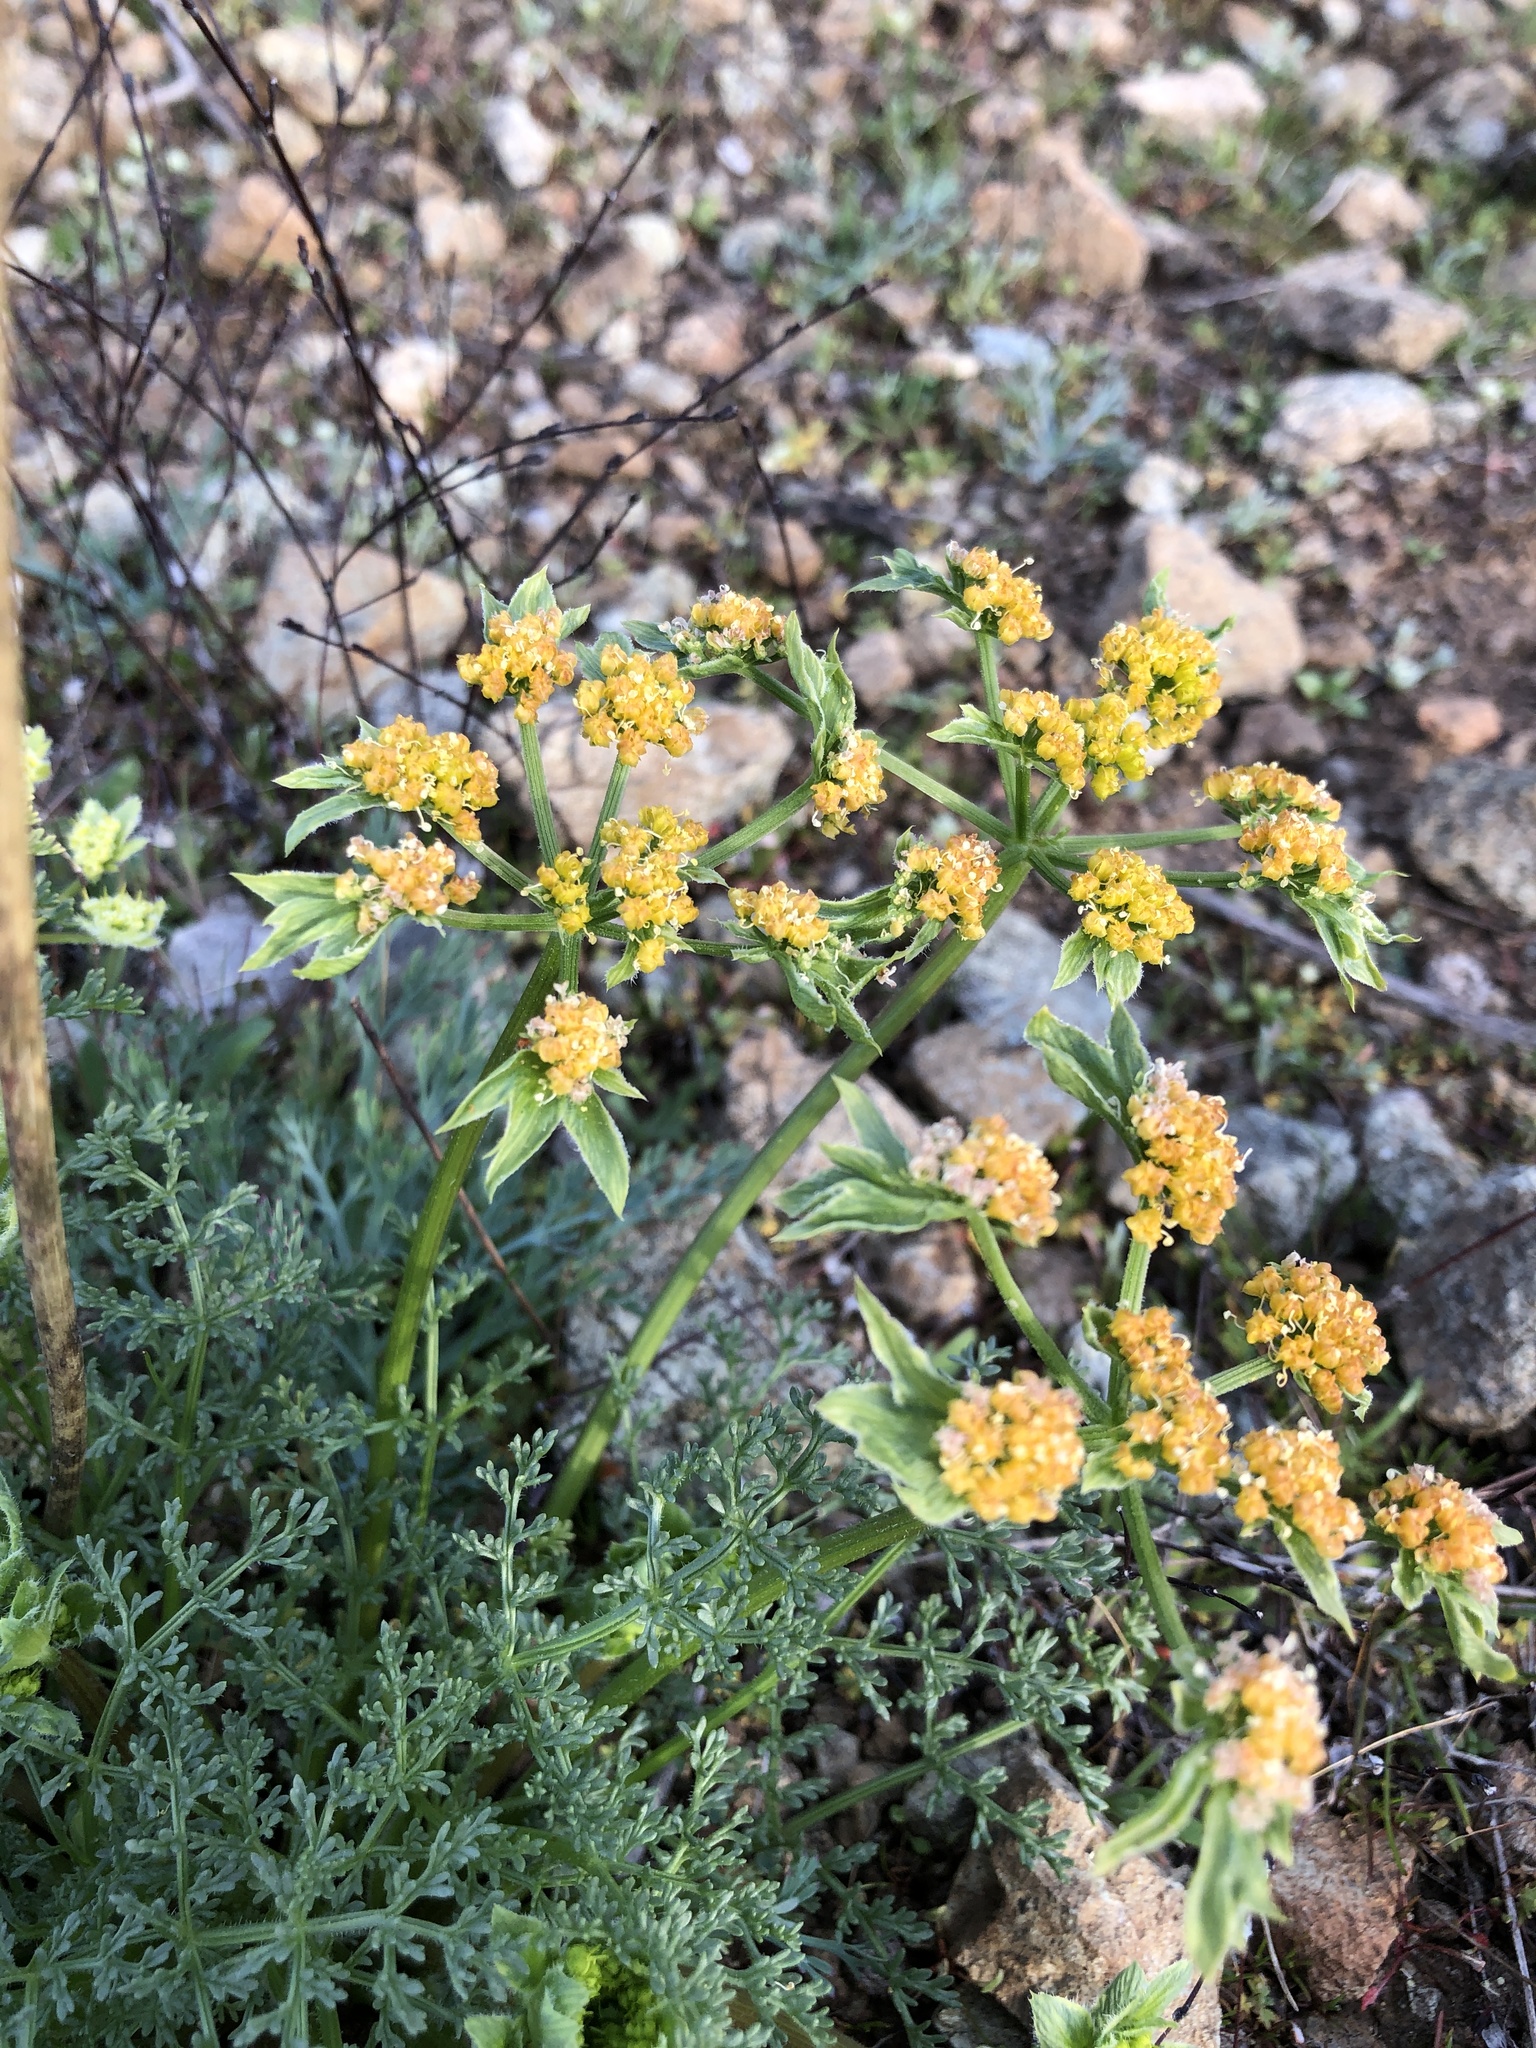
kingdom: Plantae
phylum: Tracheophyta
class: Magnoliopsida
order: Apiales
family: Apiaceae
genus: Lomatium
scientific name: Lomatium dasycarpum
